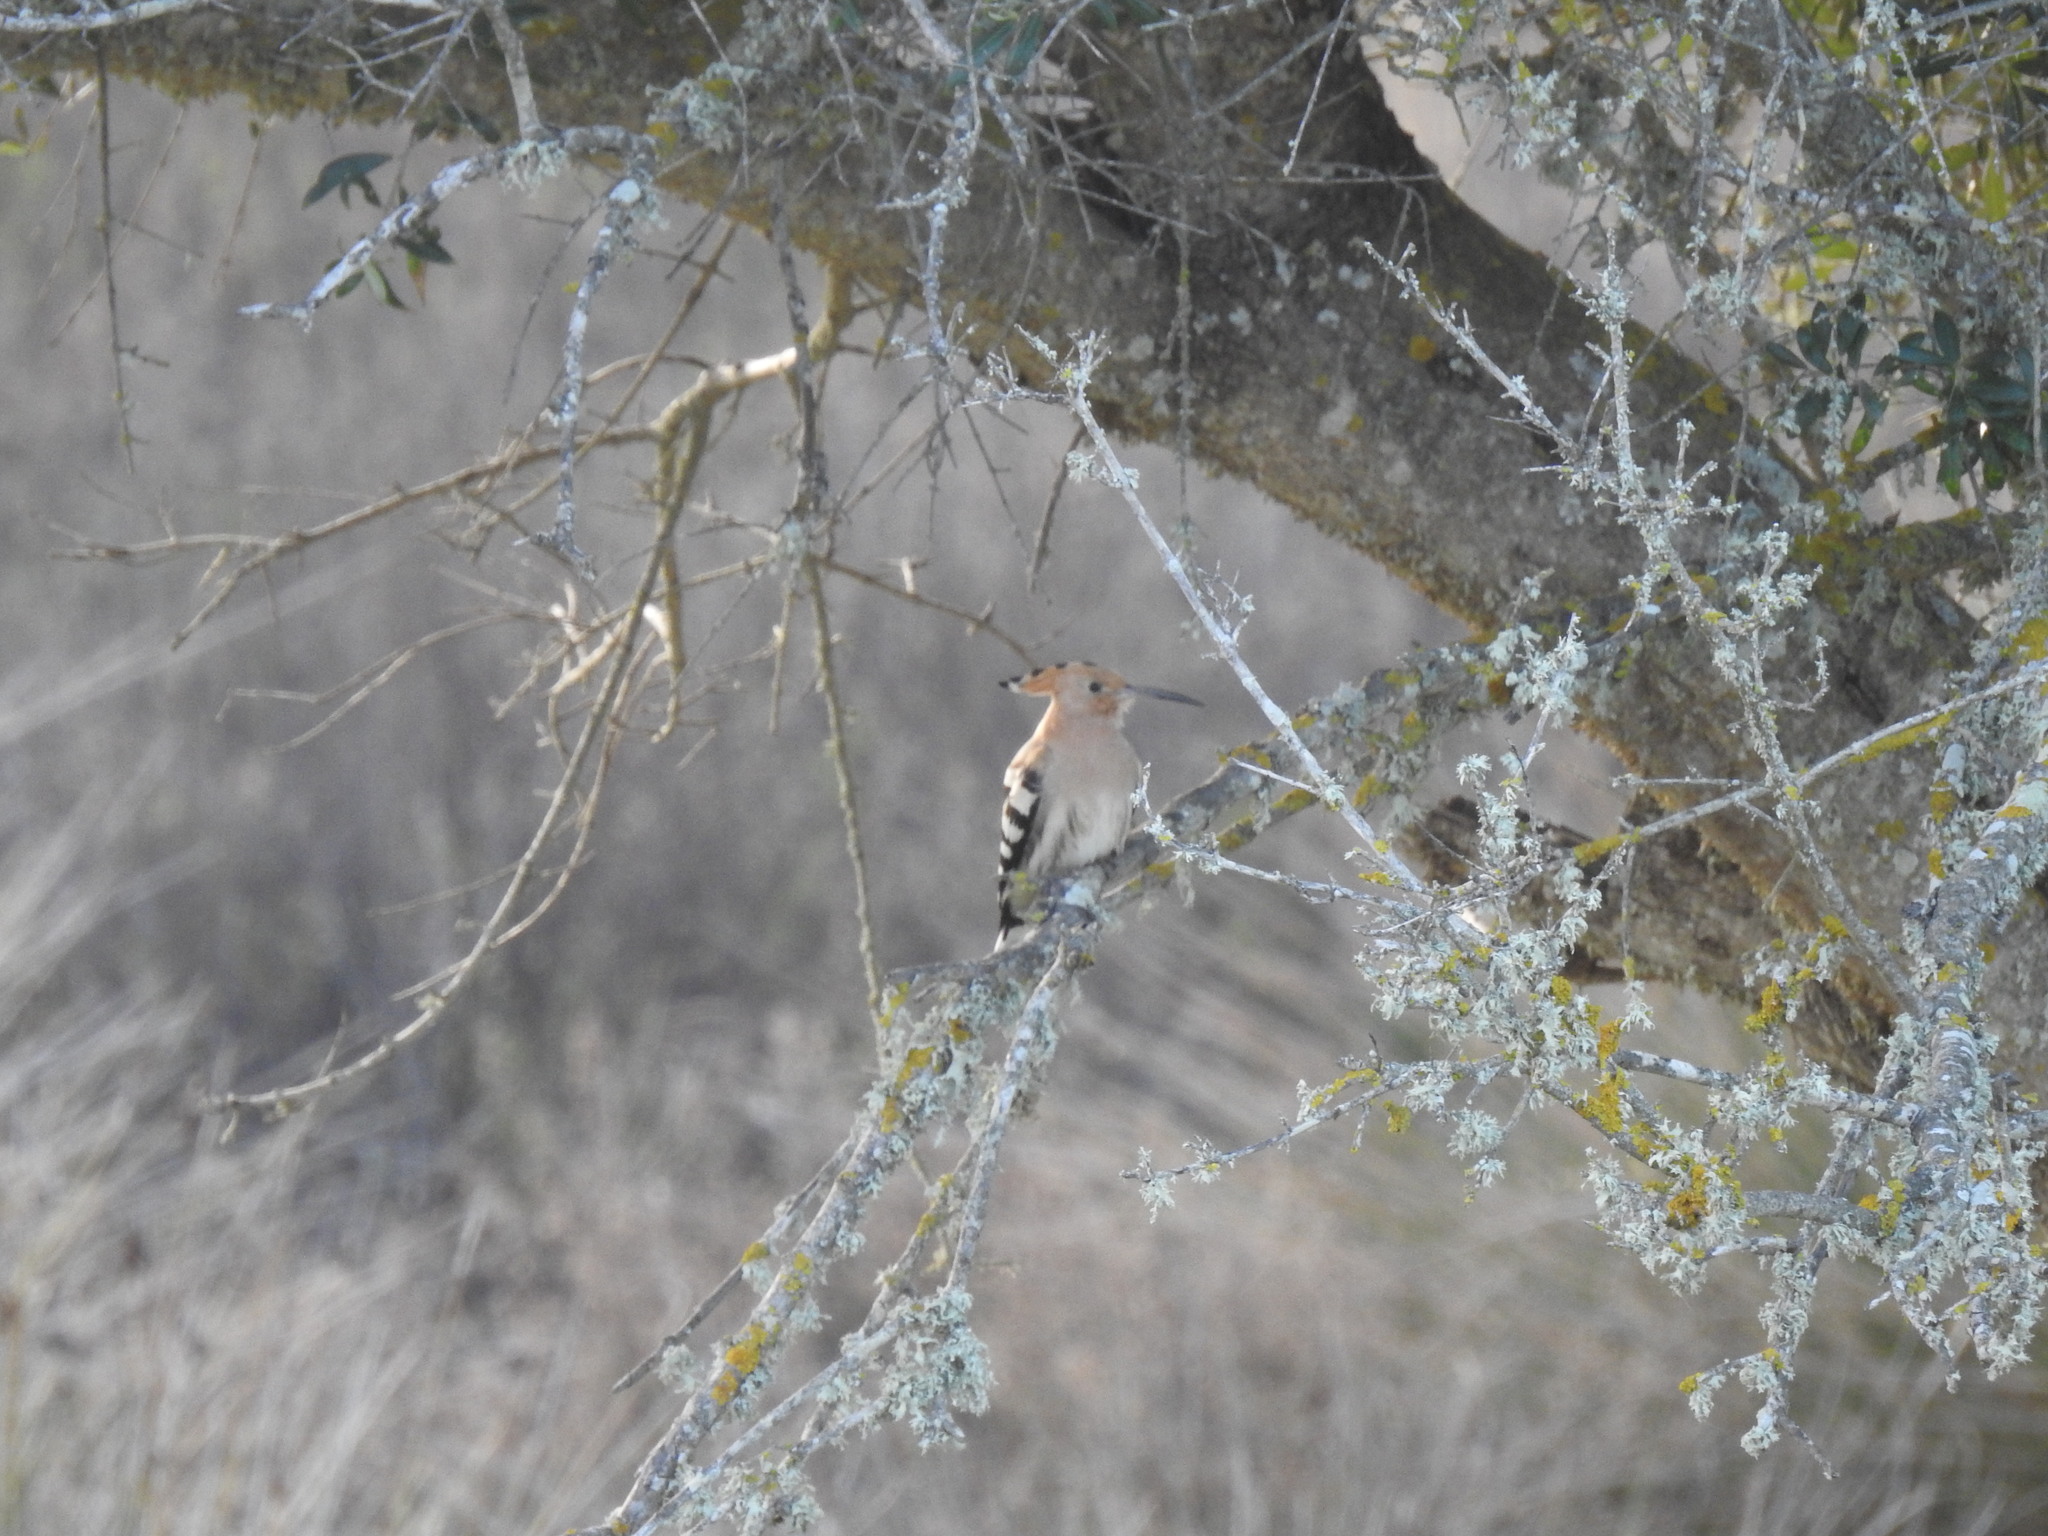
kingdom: Animalia
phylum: Chordata
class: Aves
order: Bucerotiformes
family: Upupidae
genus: Upupa
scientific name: Upupa epops
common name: Eurasian hoopoe
